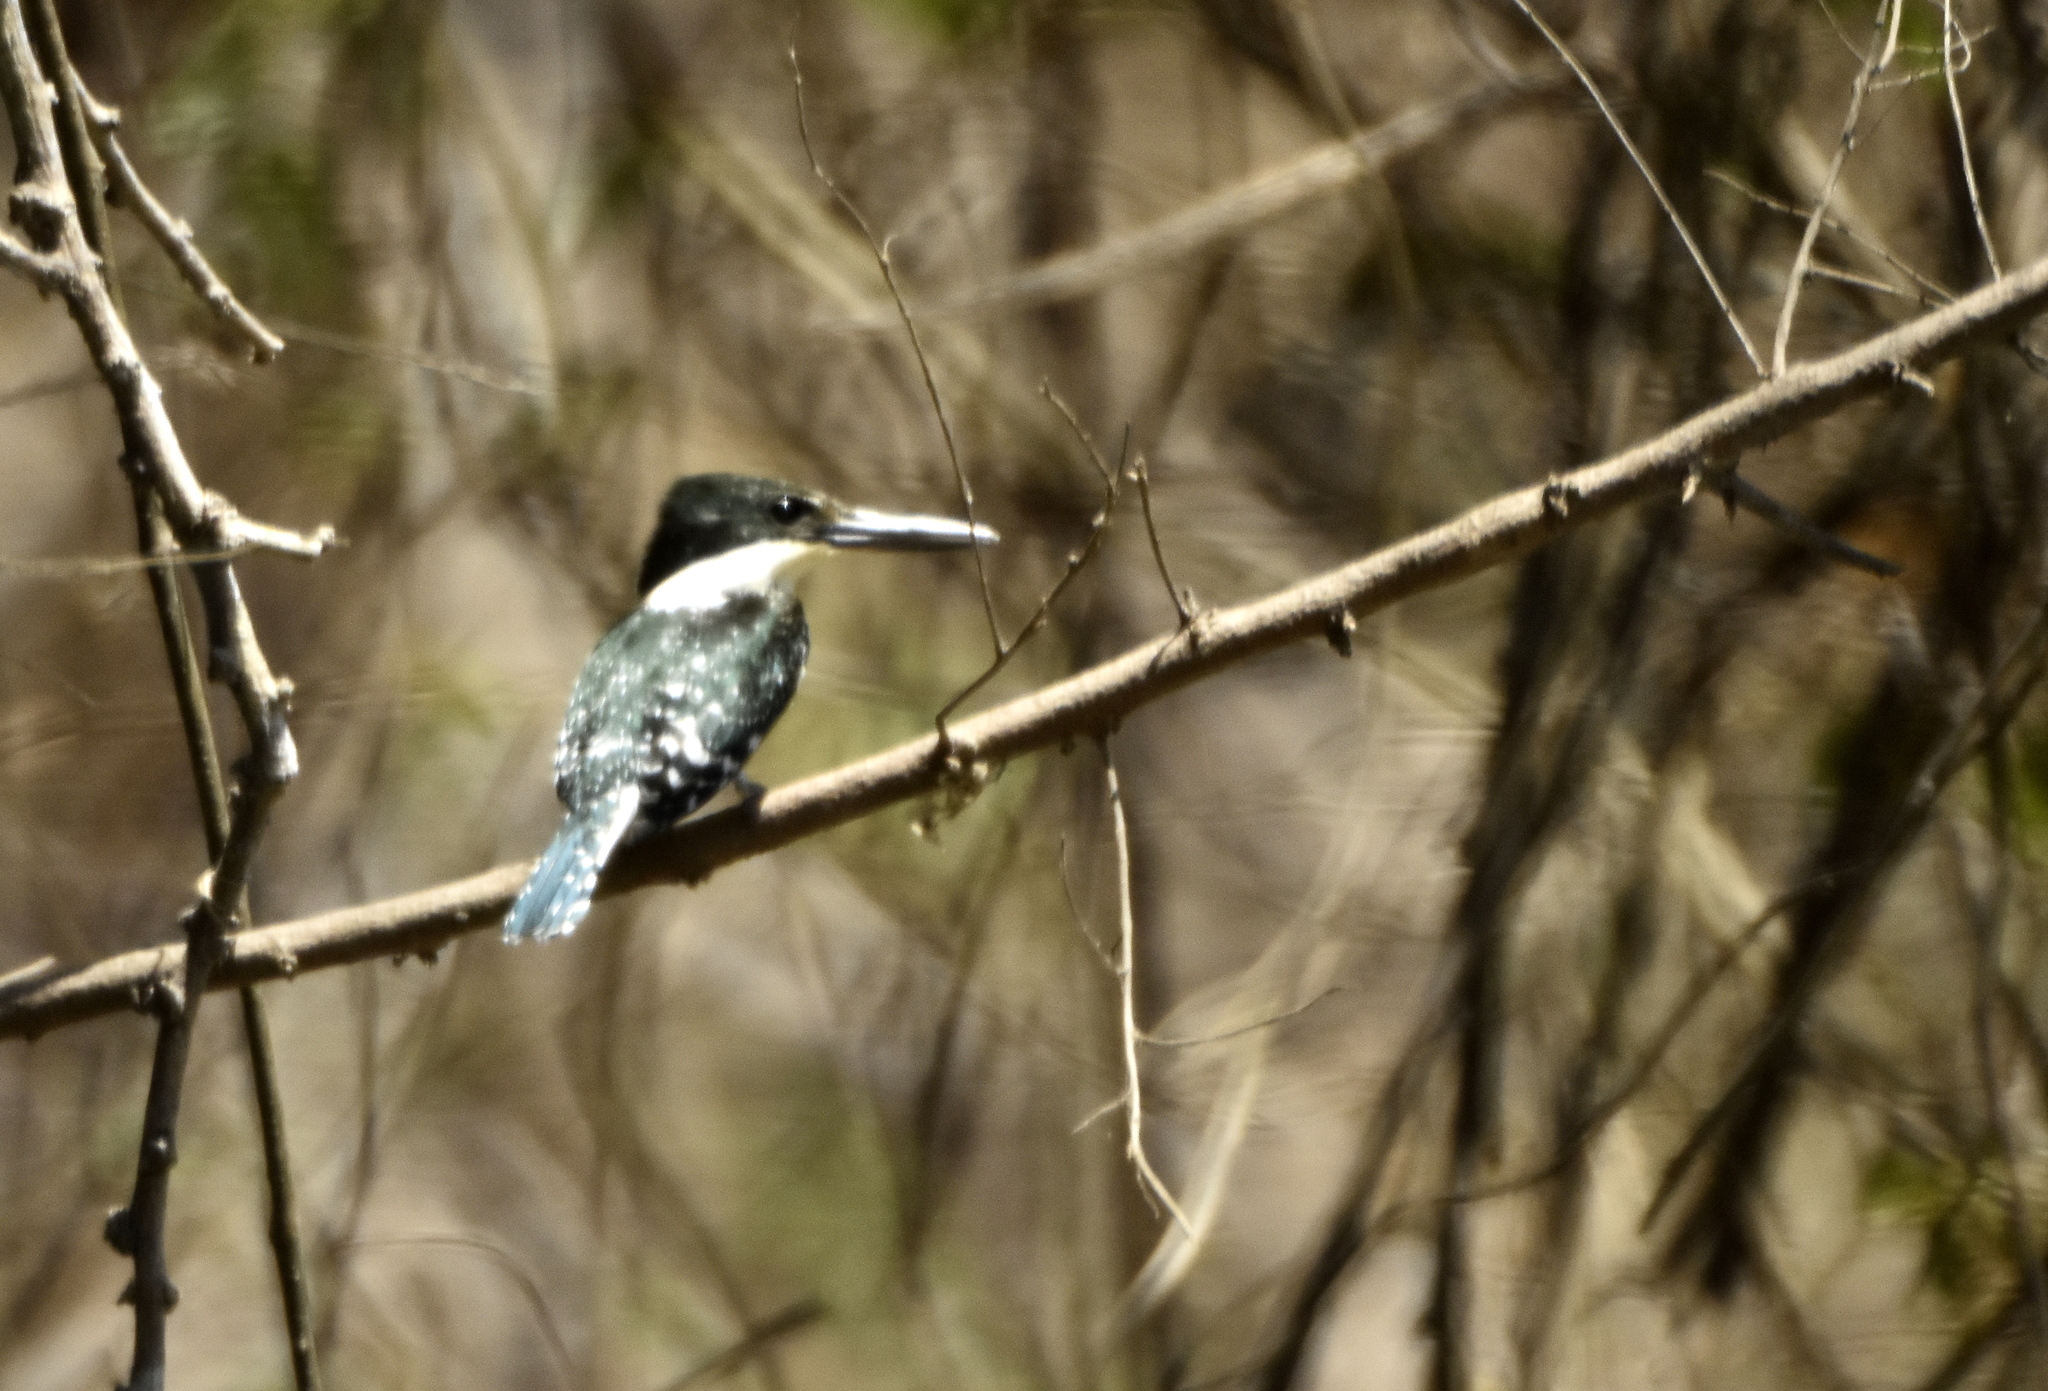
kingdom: Animalia
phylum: Chordata
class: Aves
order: Coraciiformes
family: Alcedinidae
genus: Chloroceryle
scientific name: Chloroceryle americana
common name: Green kingfisher
